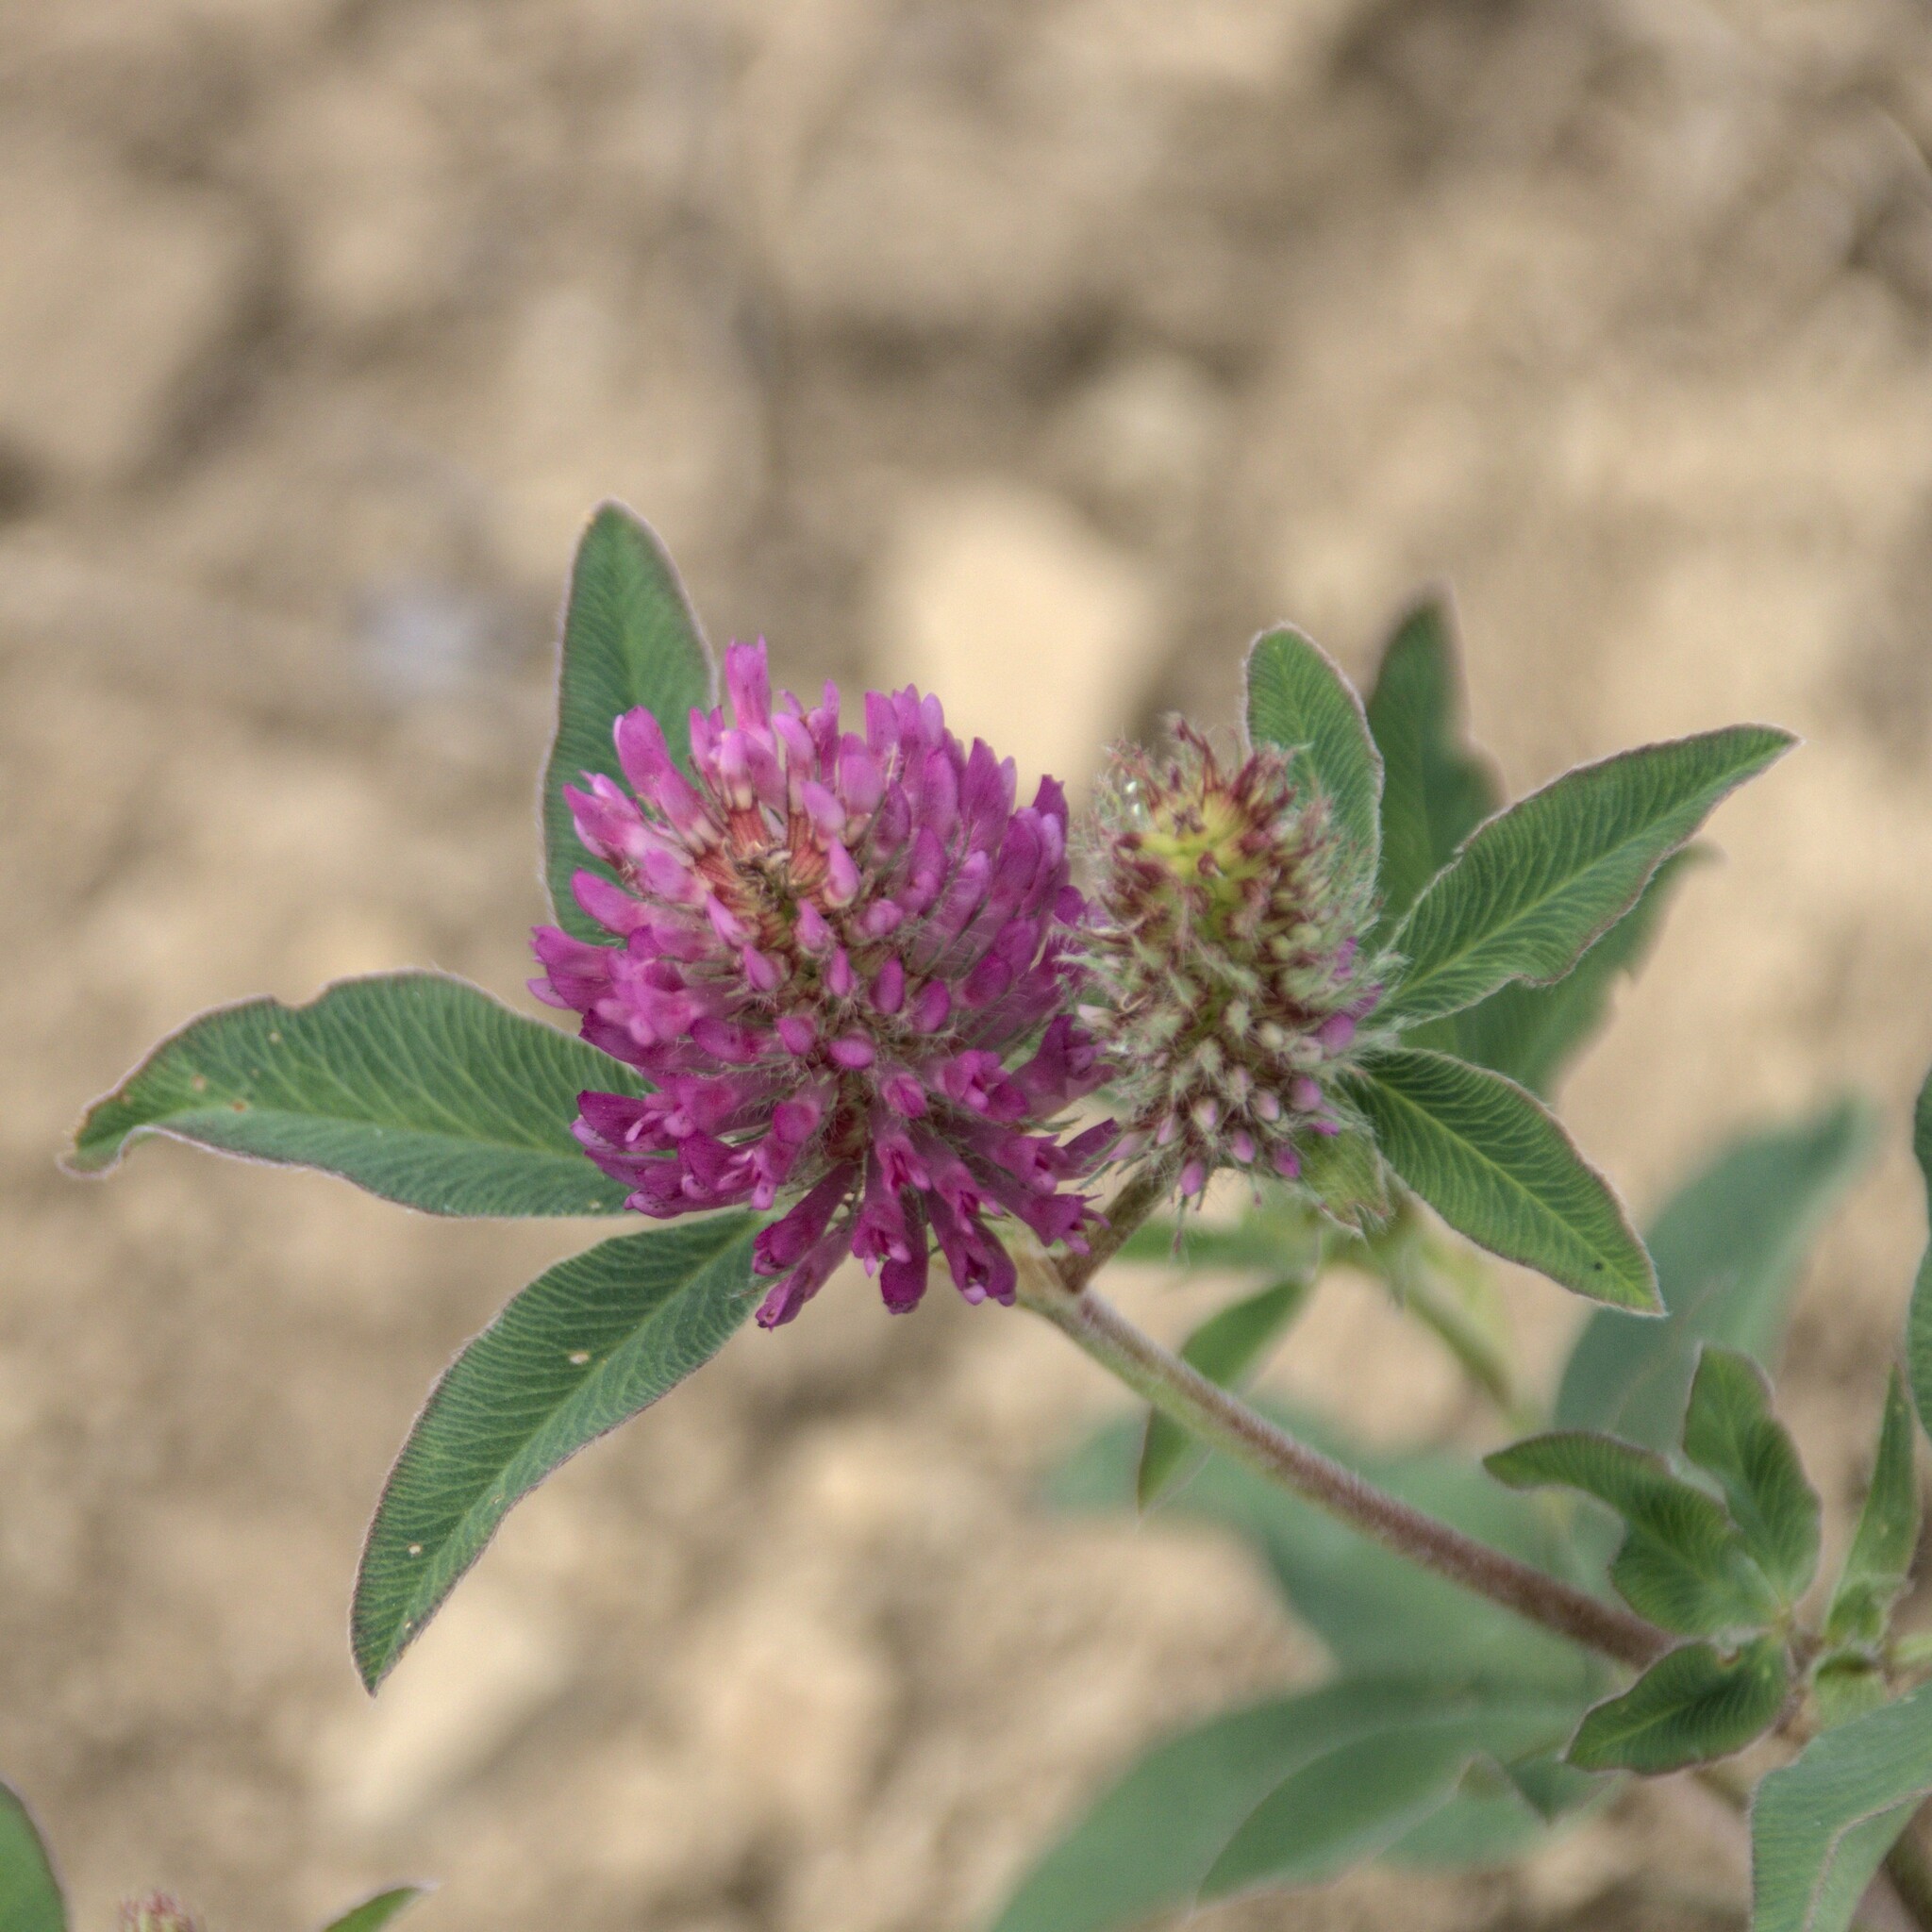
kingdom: Plantae
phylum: Tracheophyta
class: Magnoliopsida
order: Fabales
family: Fabaceae
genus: Trifolium
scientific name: Trifolium medium
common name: Zigzag clover
